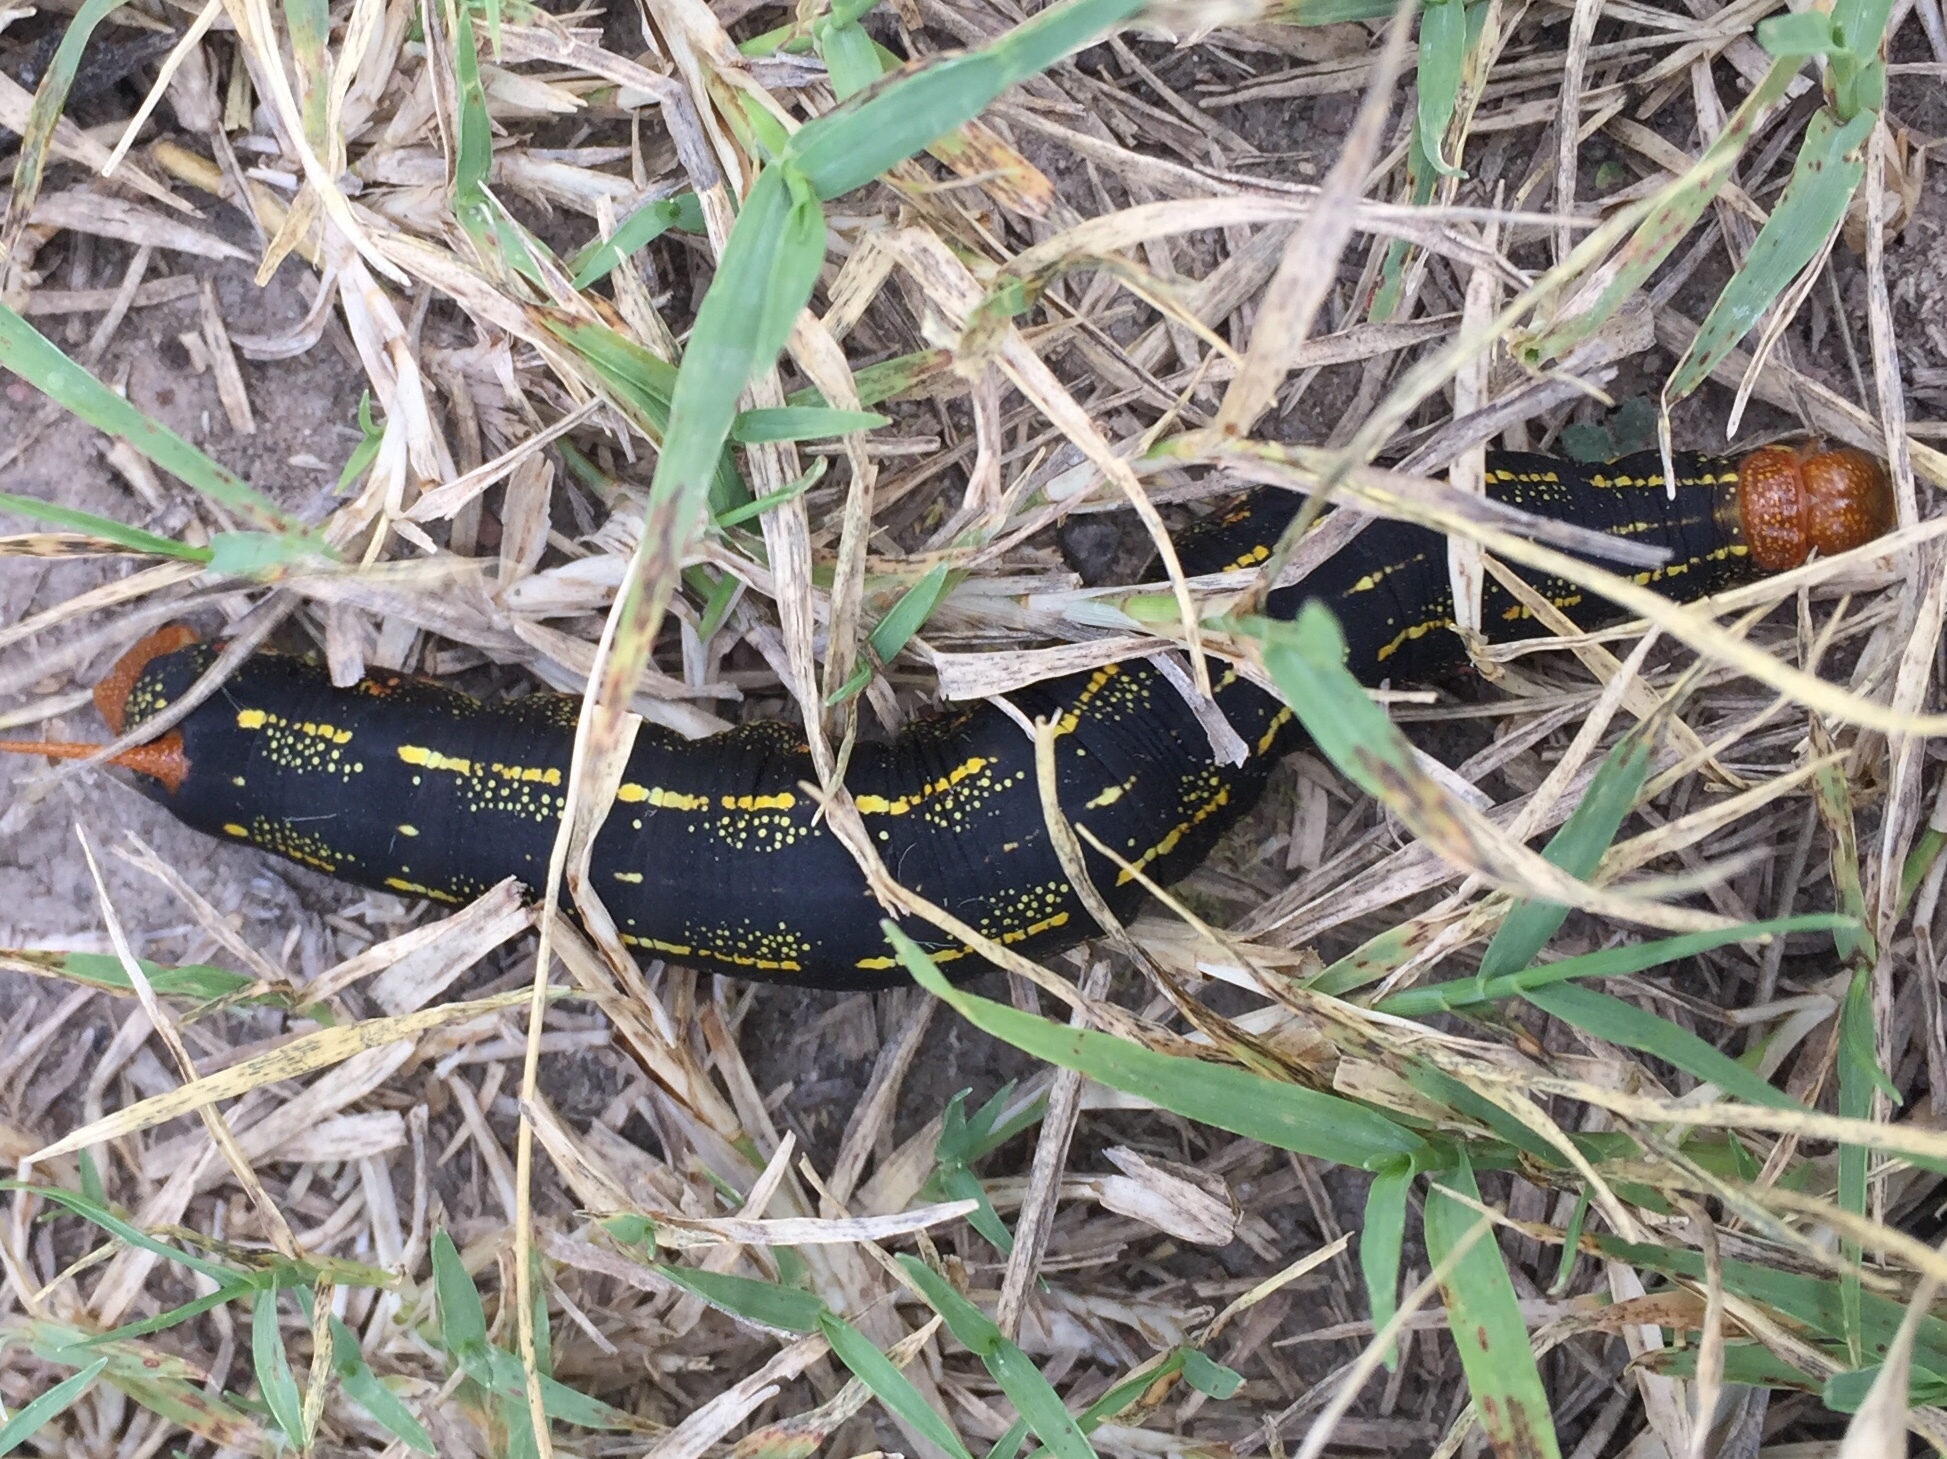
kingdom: Animalia
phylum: Arthropoda
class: Insecta
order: Lepidoptera
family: Sphingidae
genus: Hyles
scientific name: Hyles lineata
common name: White-lined sphinx
